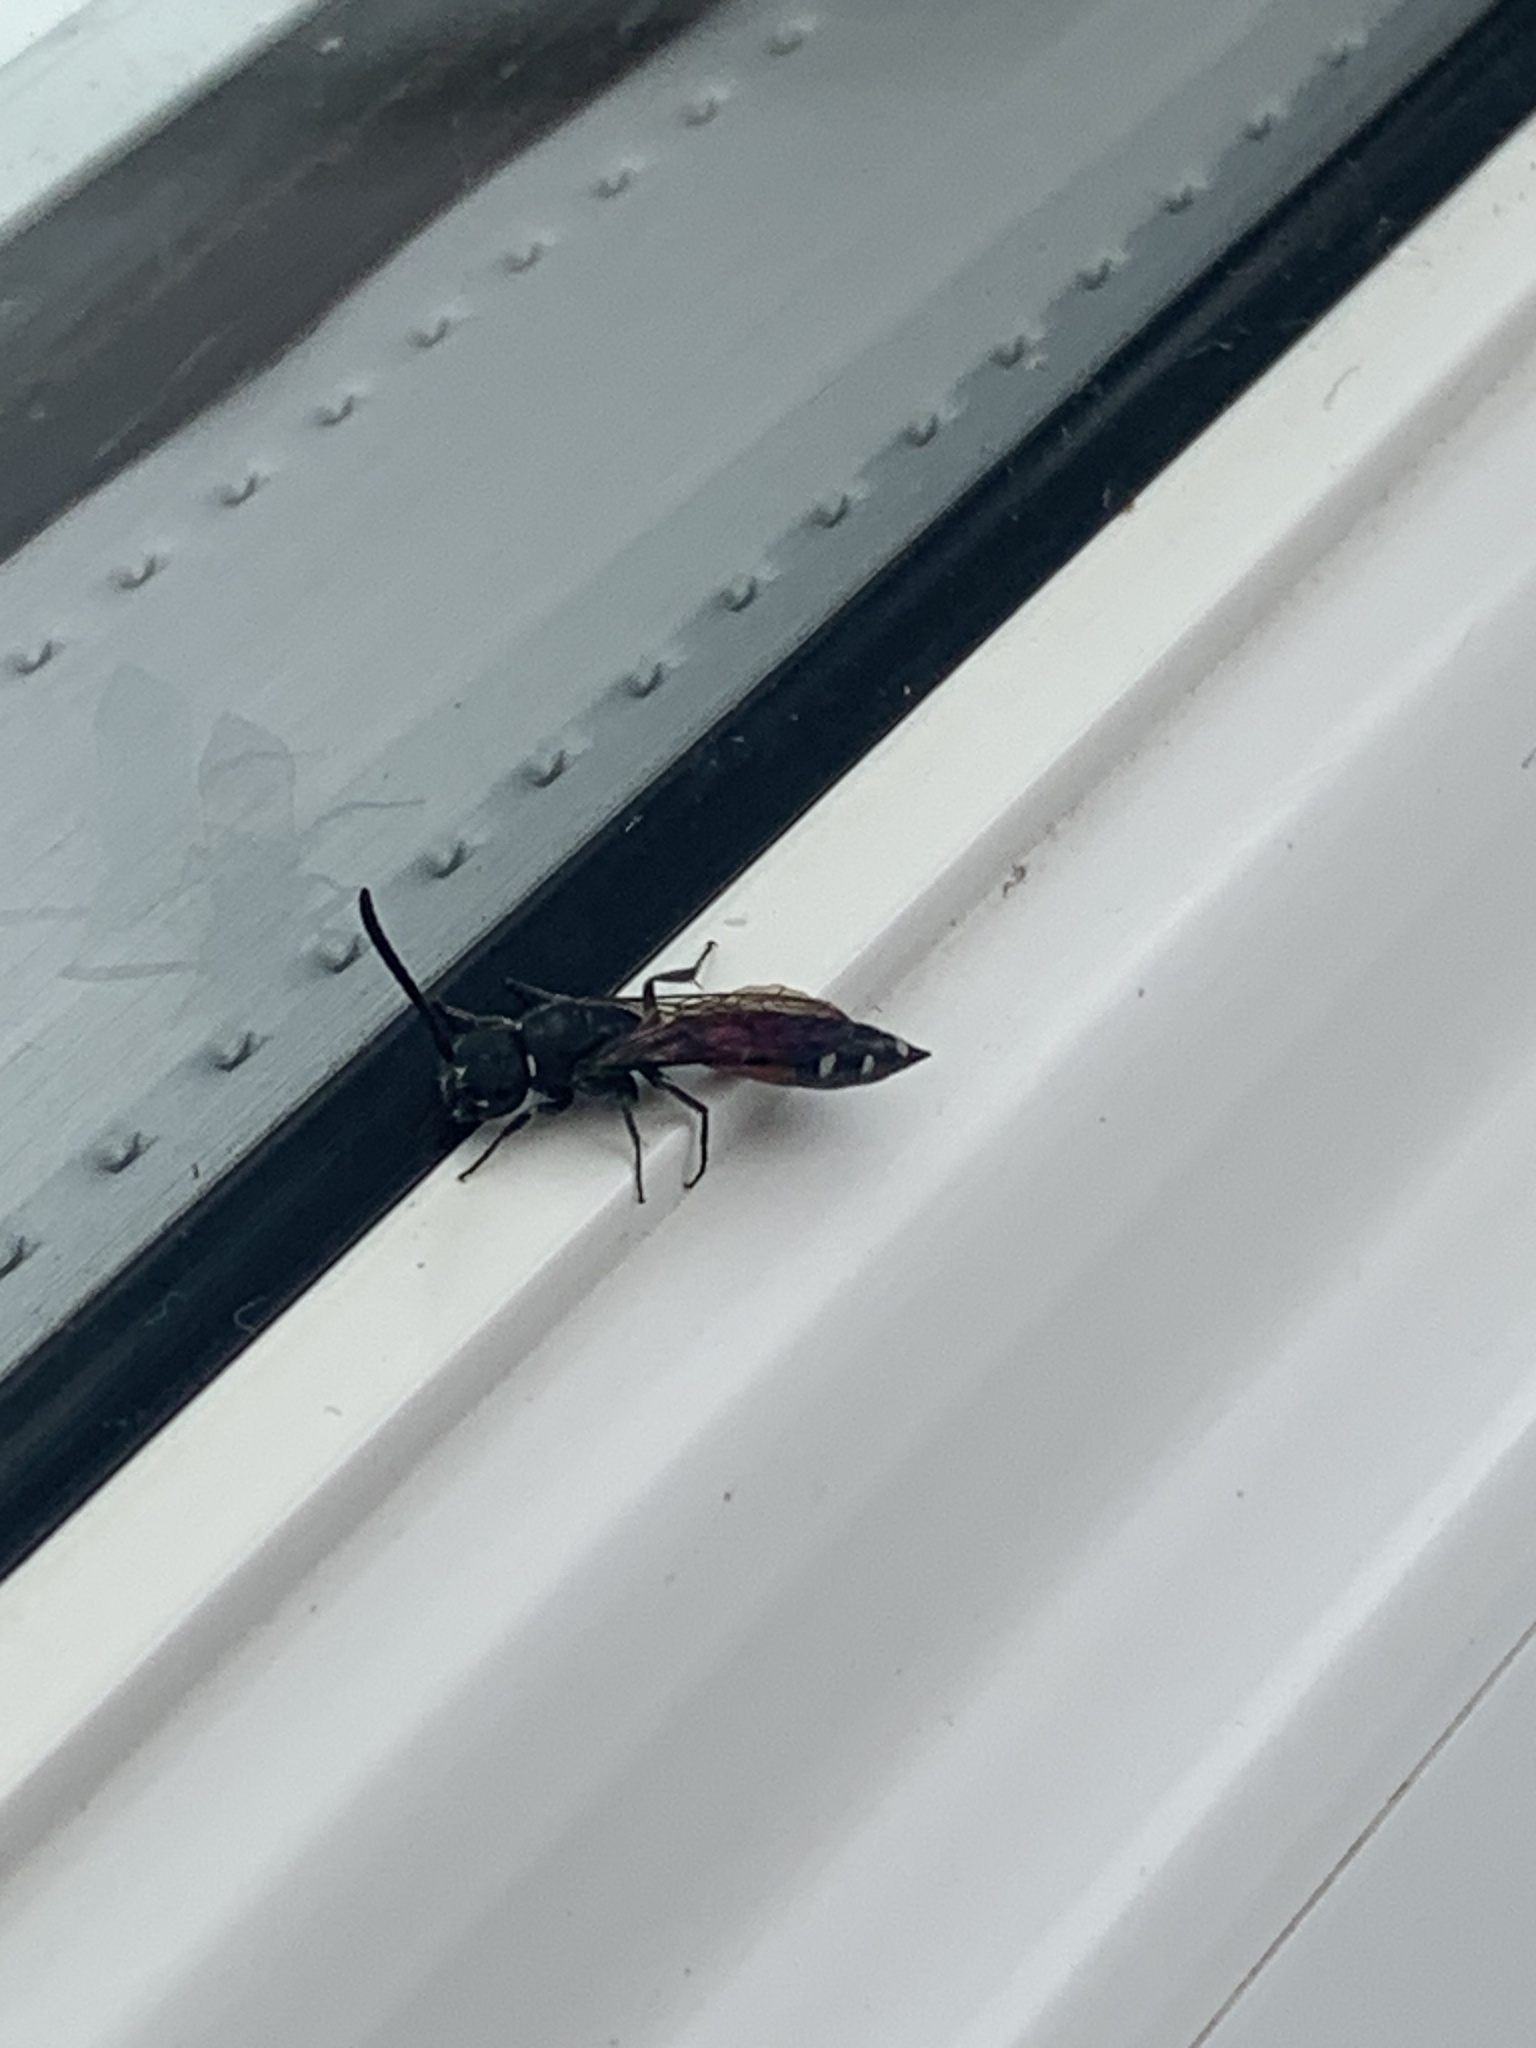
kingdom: Animalia
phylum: Arthropoda
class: Insecta
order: Hymenoptera
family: Sapygidae
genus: Sapyga
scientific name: Sapyga quinquepunctata
